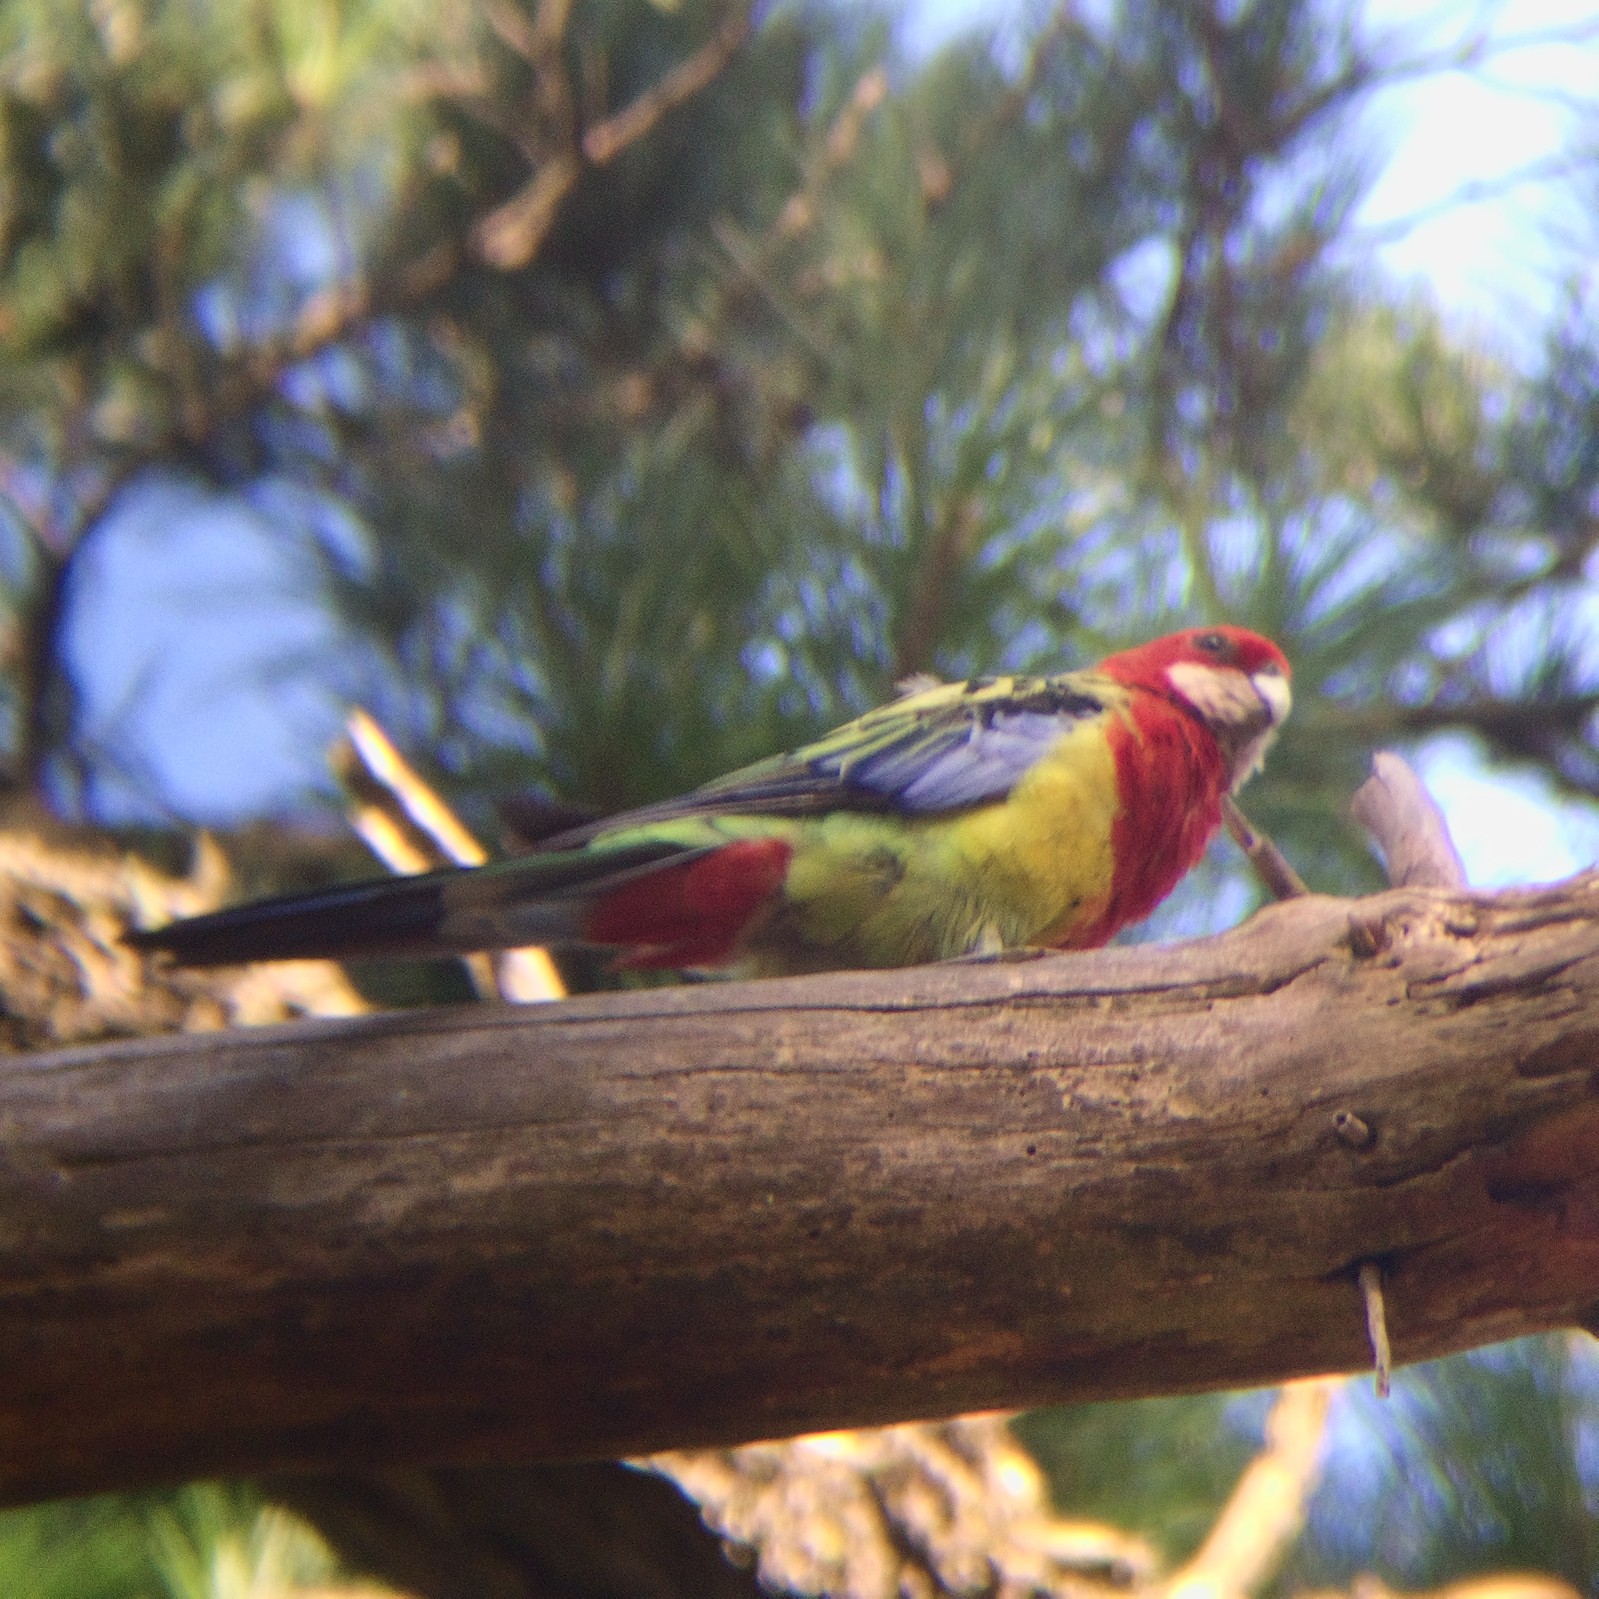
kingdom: Animalia
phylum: Chordata
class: Aves
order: Psittaciformes
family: Psittacidae
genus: Platycercus
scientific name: Platycercus eximius
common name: Eastern rosella
